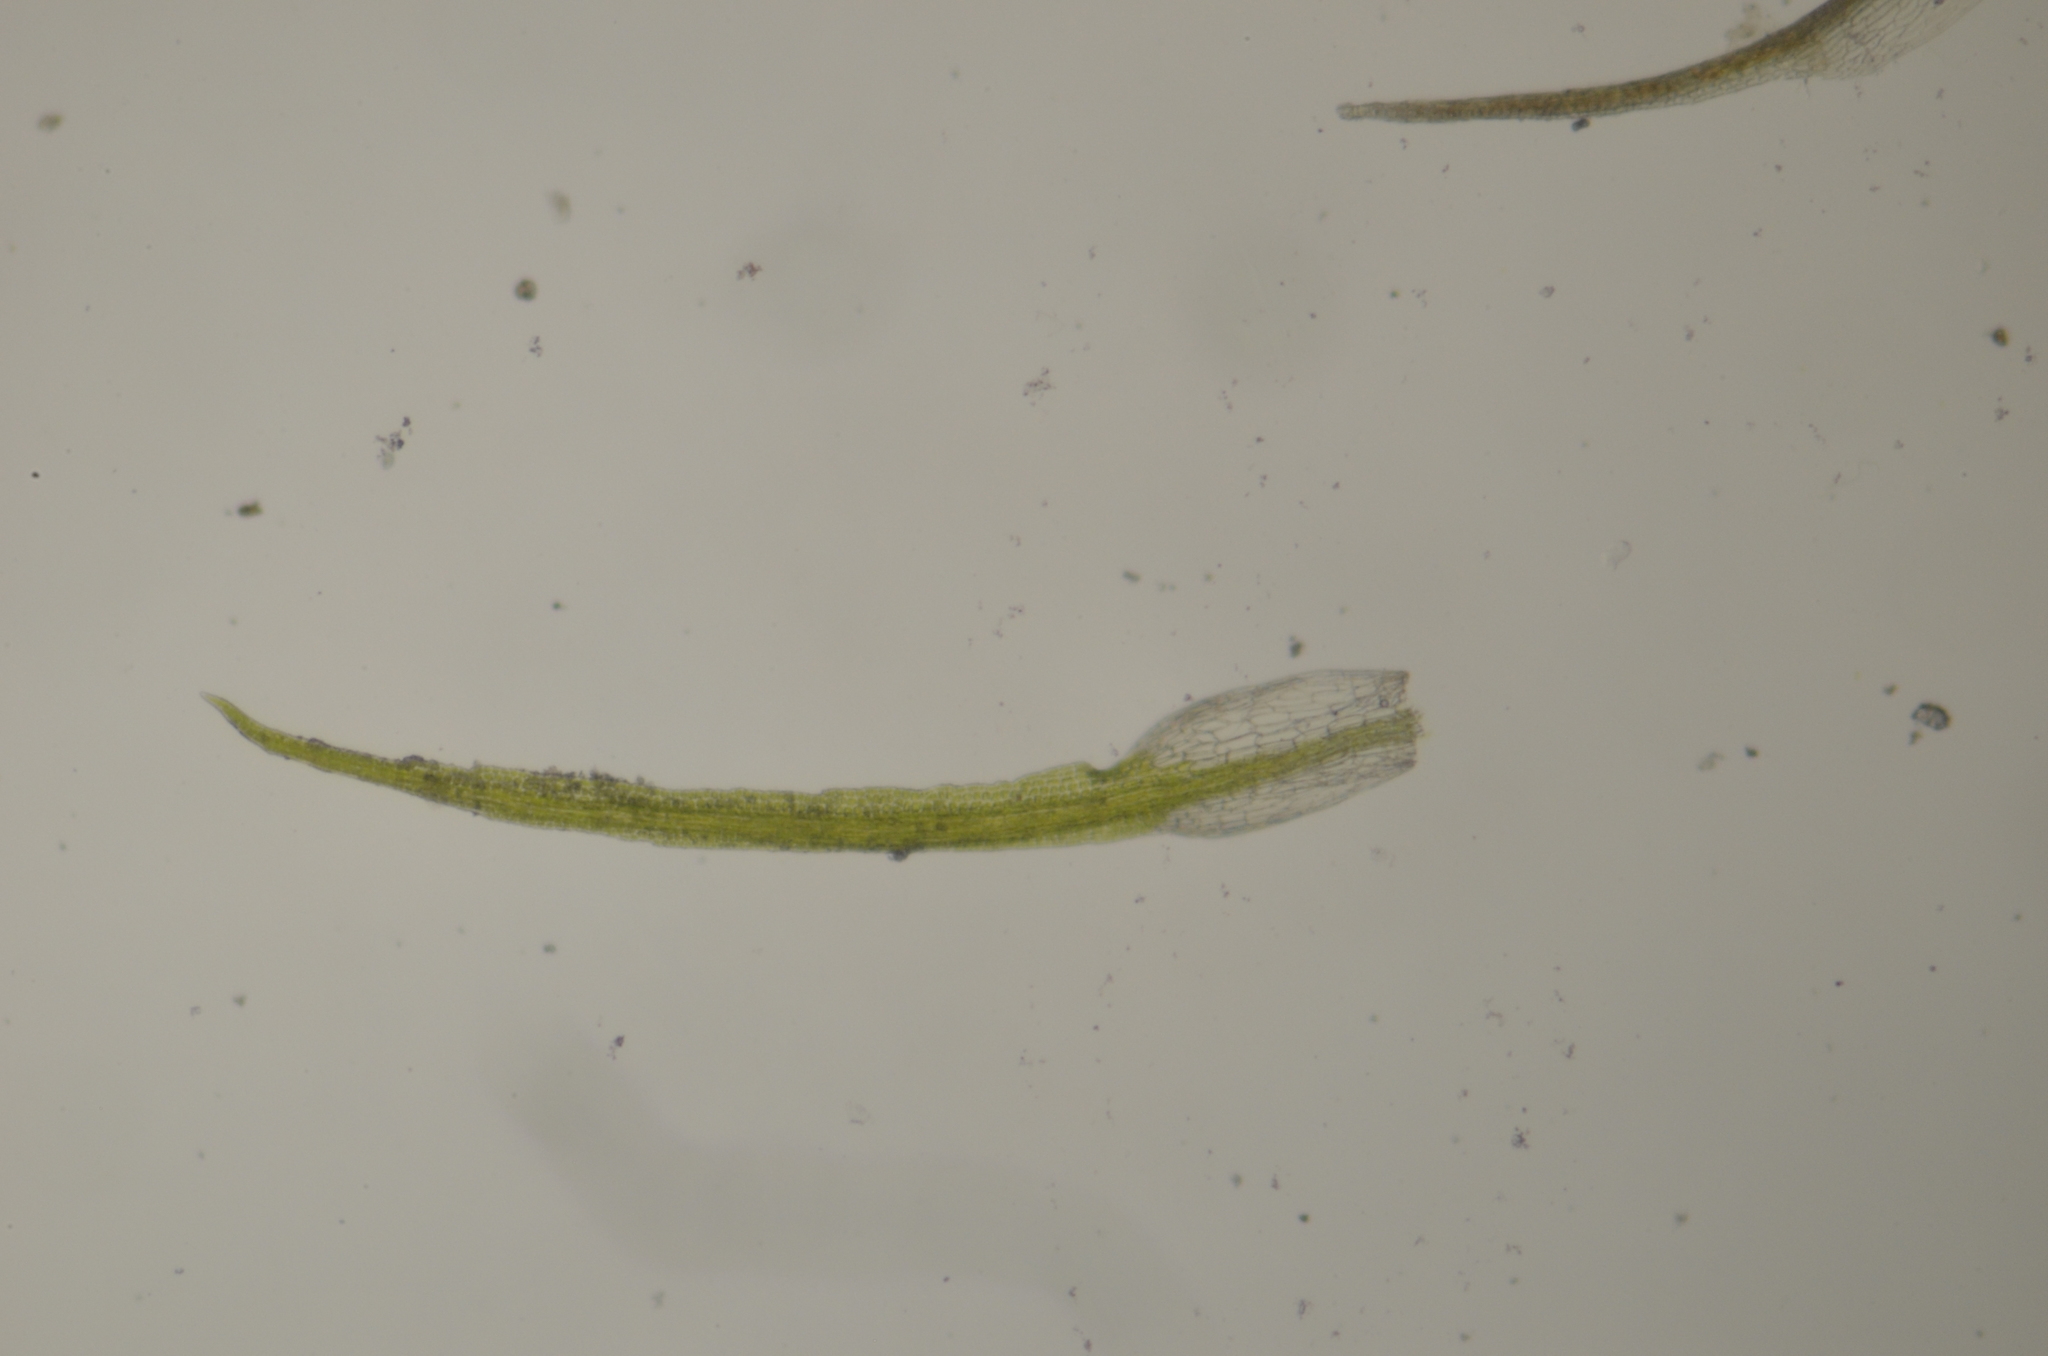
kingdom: Plantae
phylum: Bryophyta
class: Bryopsida
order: Pottiales
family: Pottiaceae
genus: Eucladium
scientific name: Eucladium verticillatum
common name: Whorled tufa-moss
